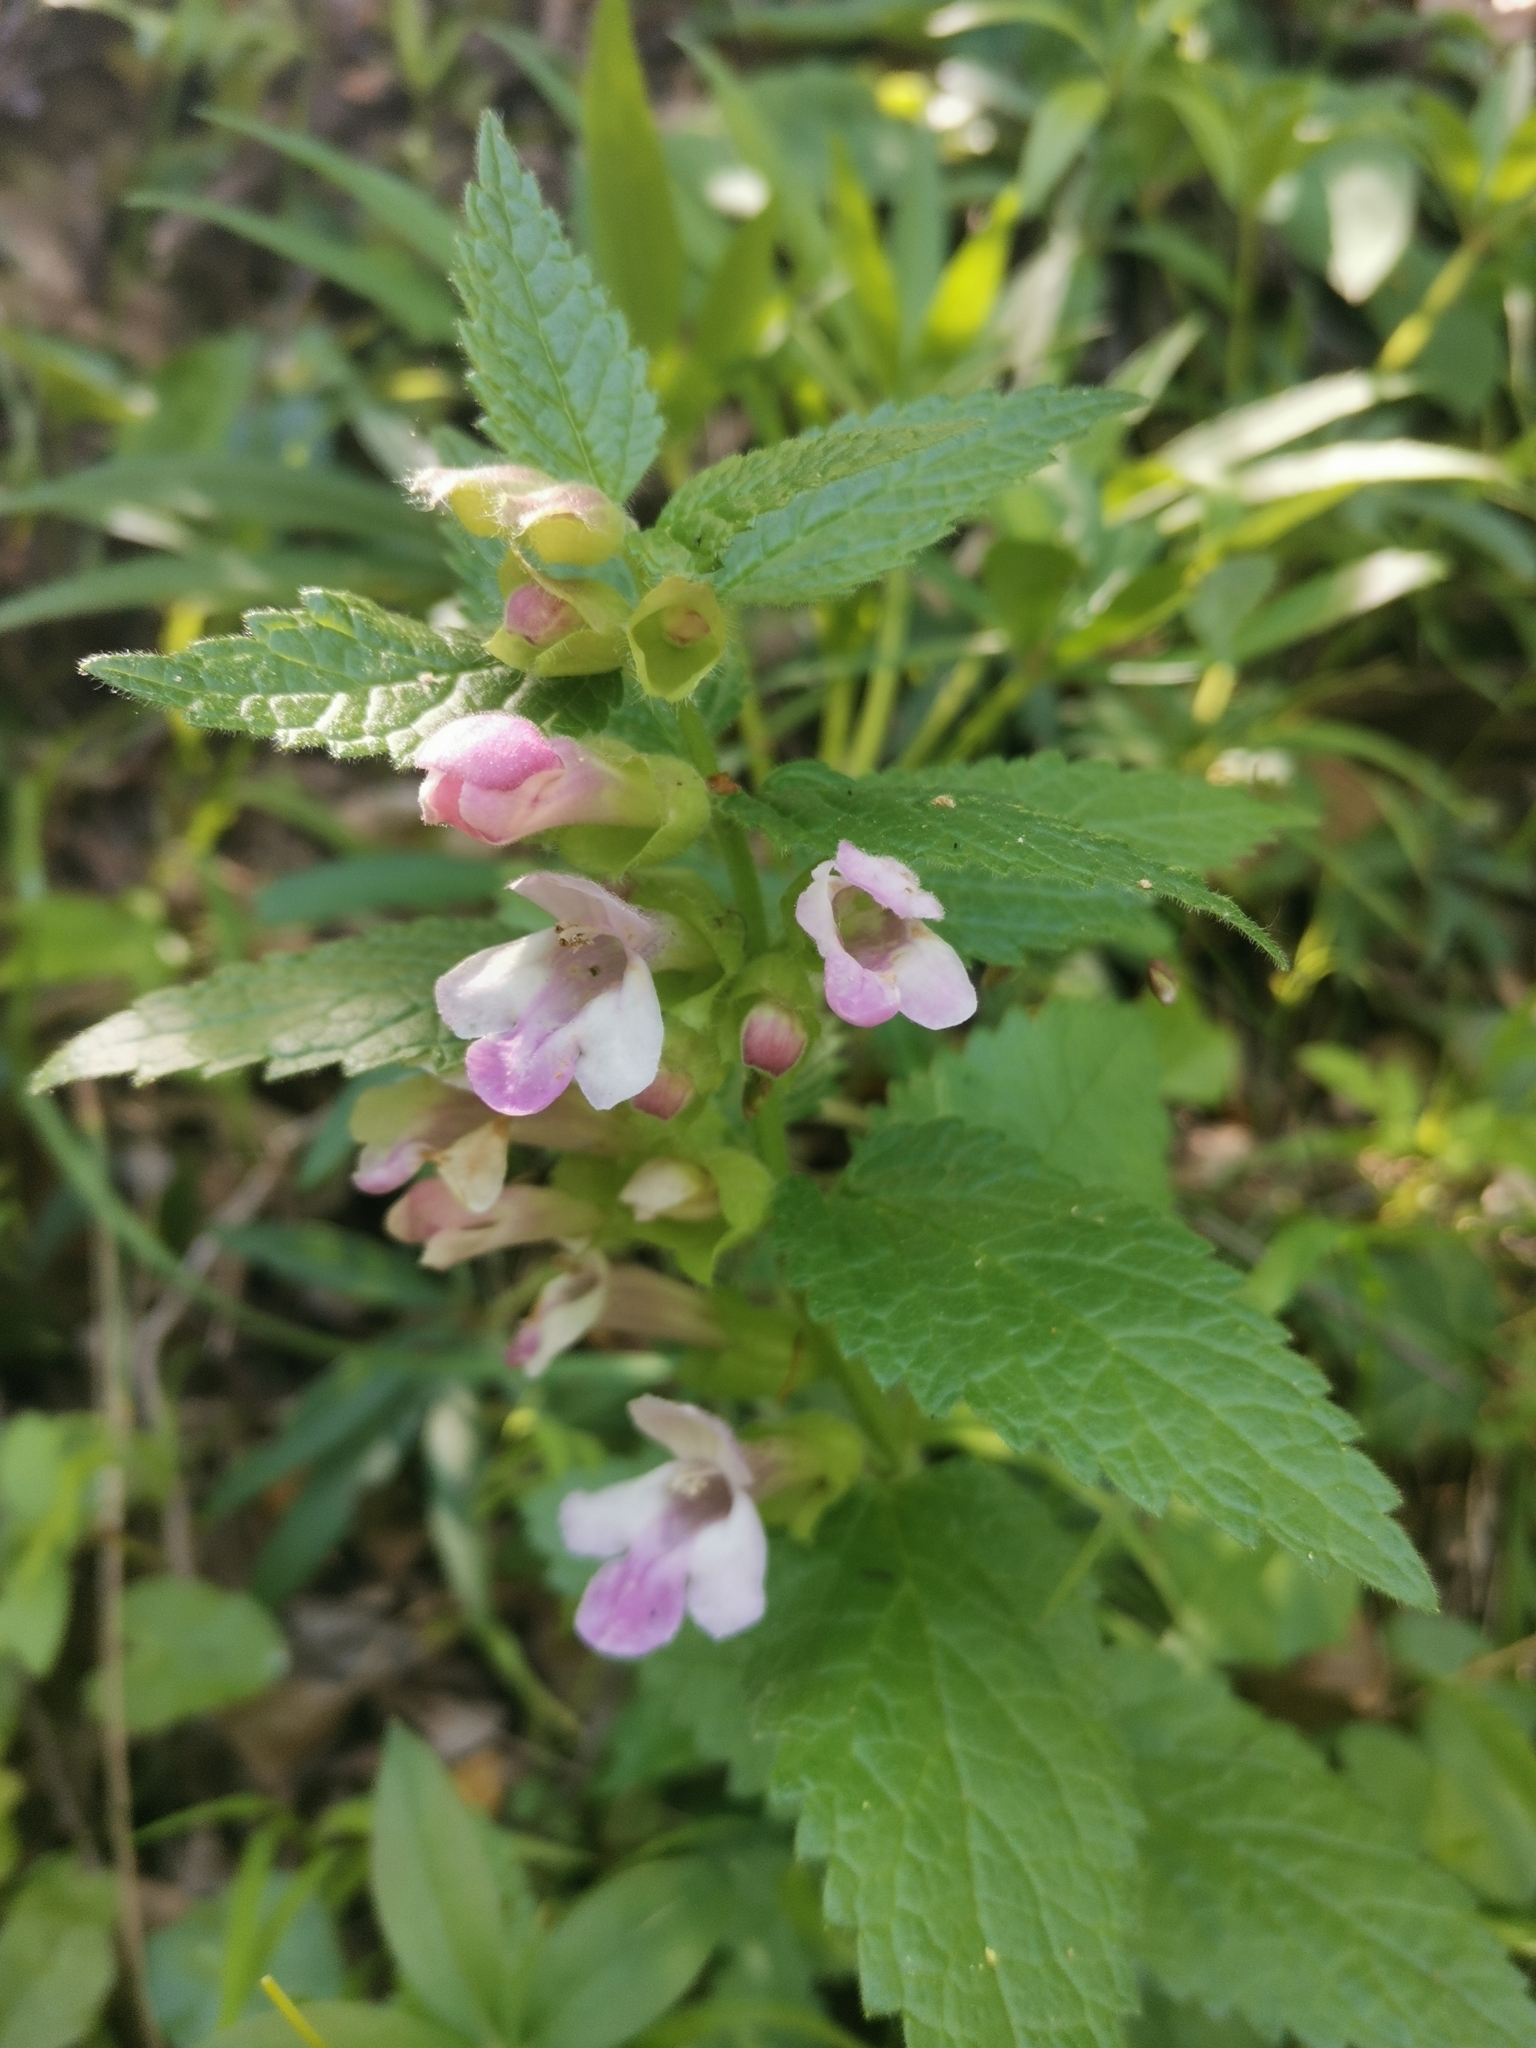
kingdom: Plantae
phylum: Tracheophyta
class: Magnoliopsida
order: Lamiales
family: Lamiaceae
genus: Melittis
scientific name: Melittis melissophyllum
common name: Bastard balm
